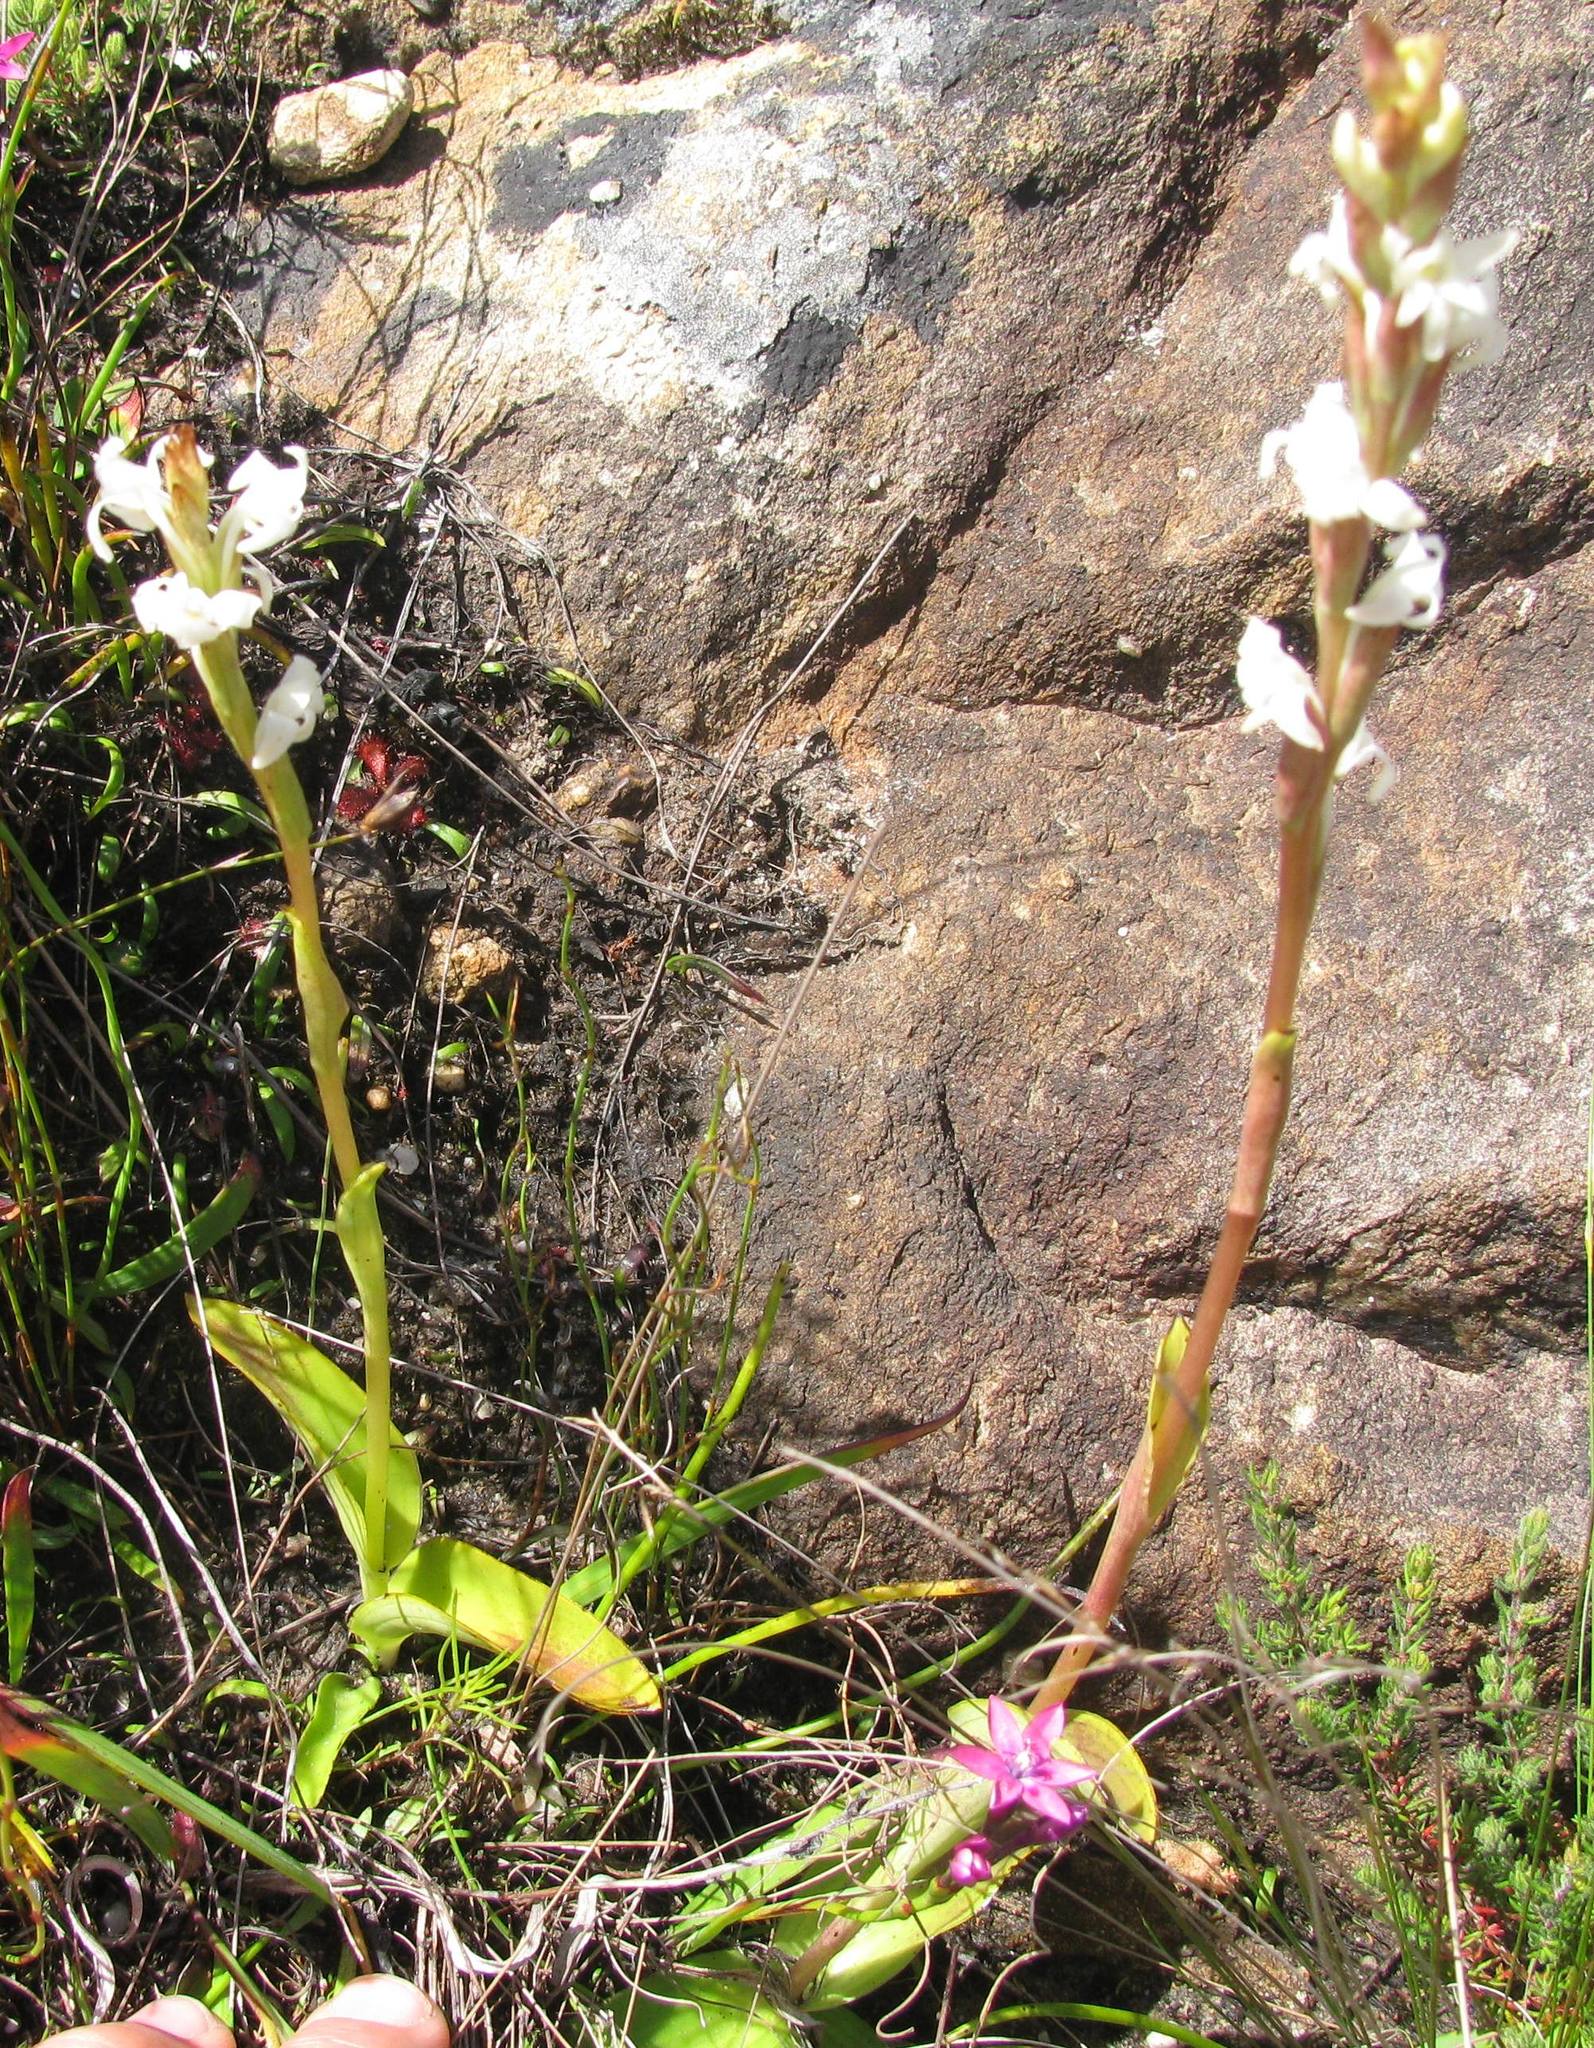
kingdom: Plantae
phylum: Tracheophyta
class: Liliopsida
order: Asparagales
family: Orchidaceae
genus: Satyrium
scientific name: Satyrium stenopetalum
